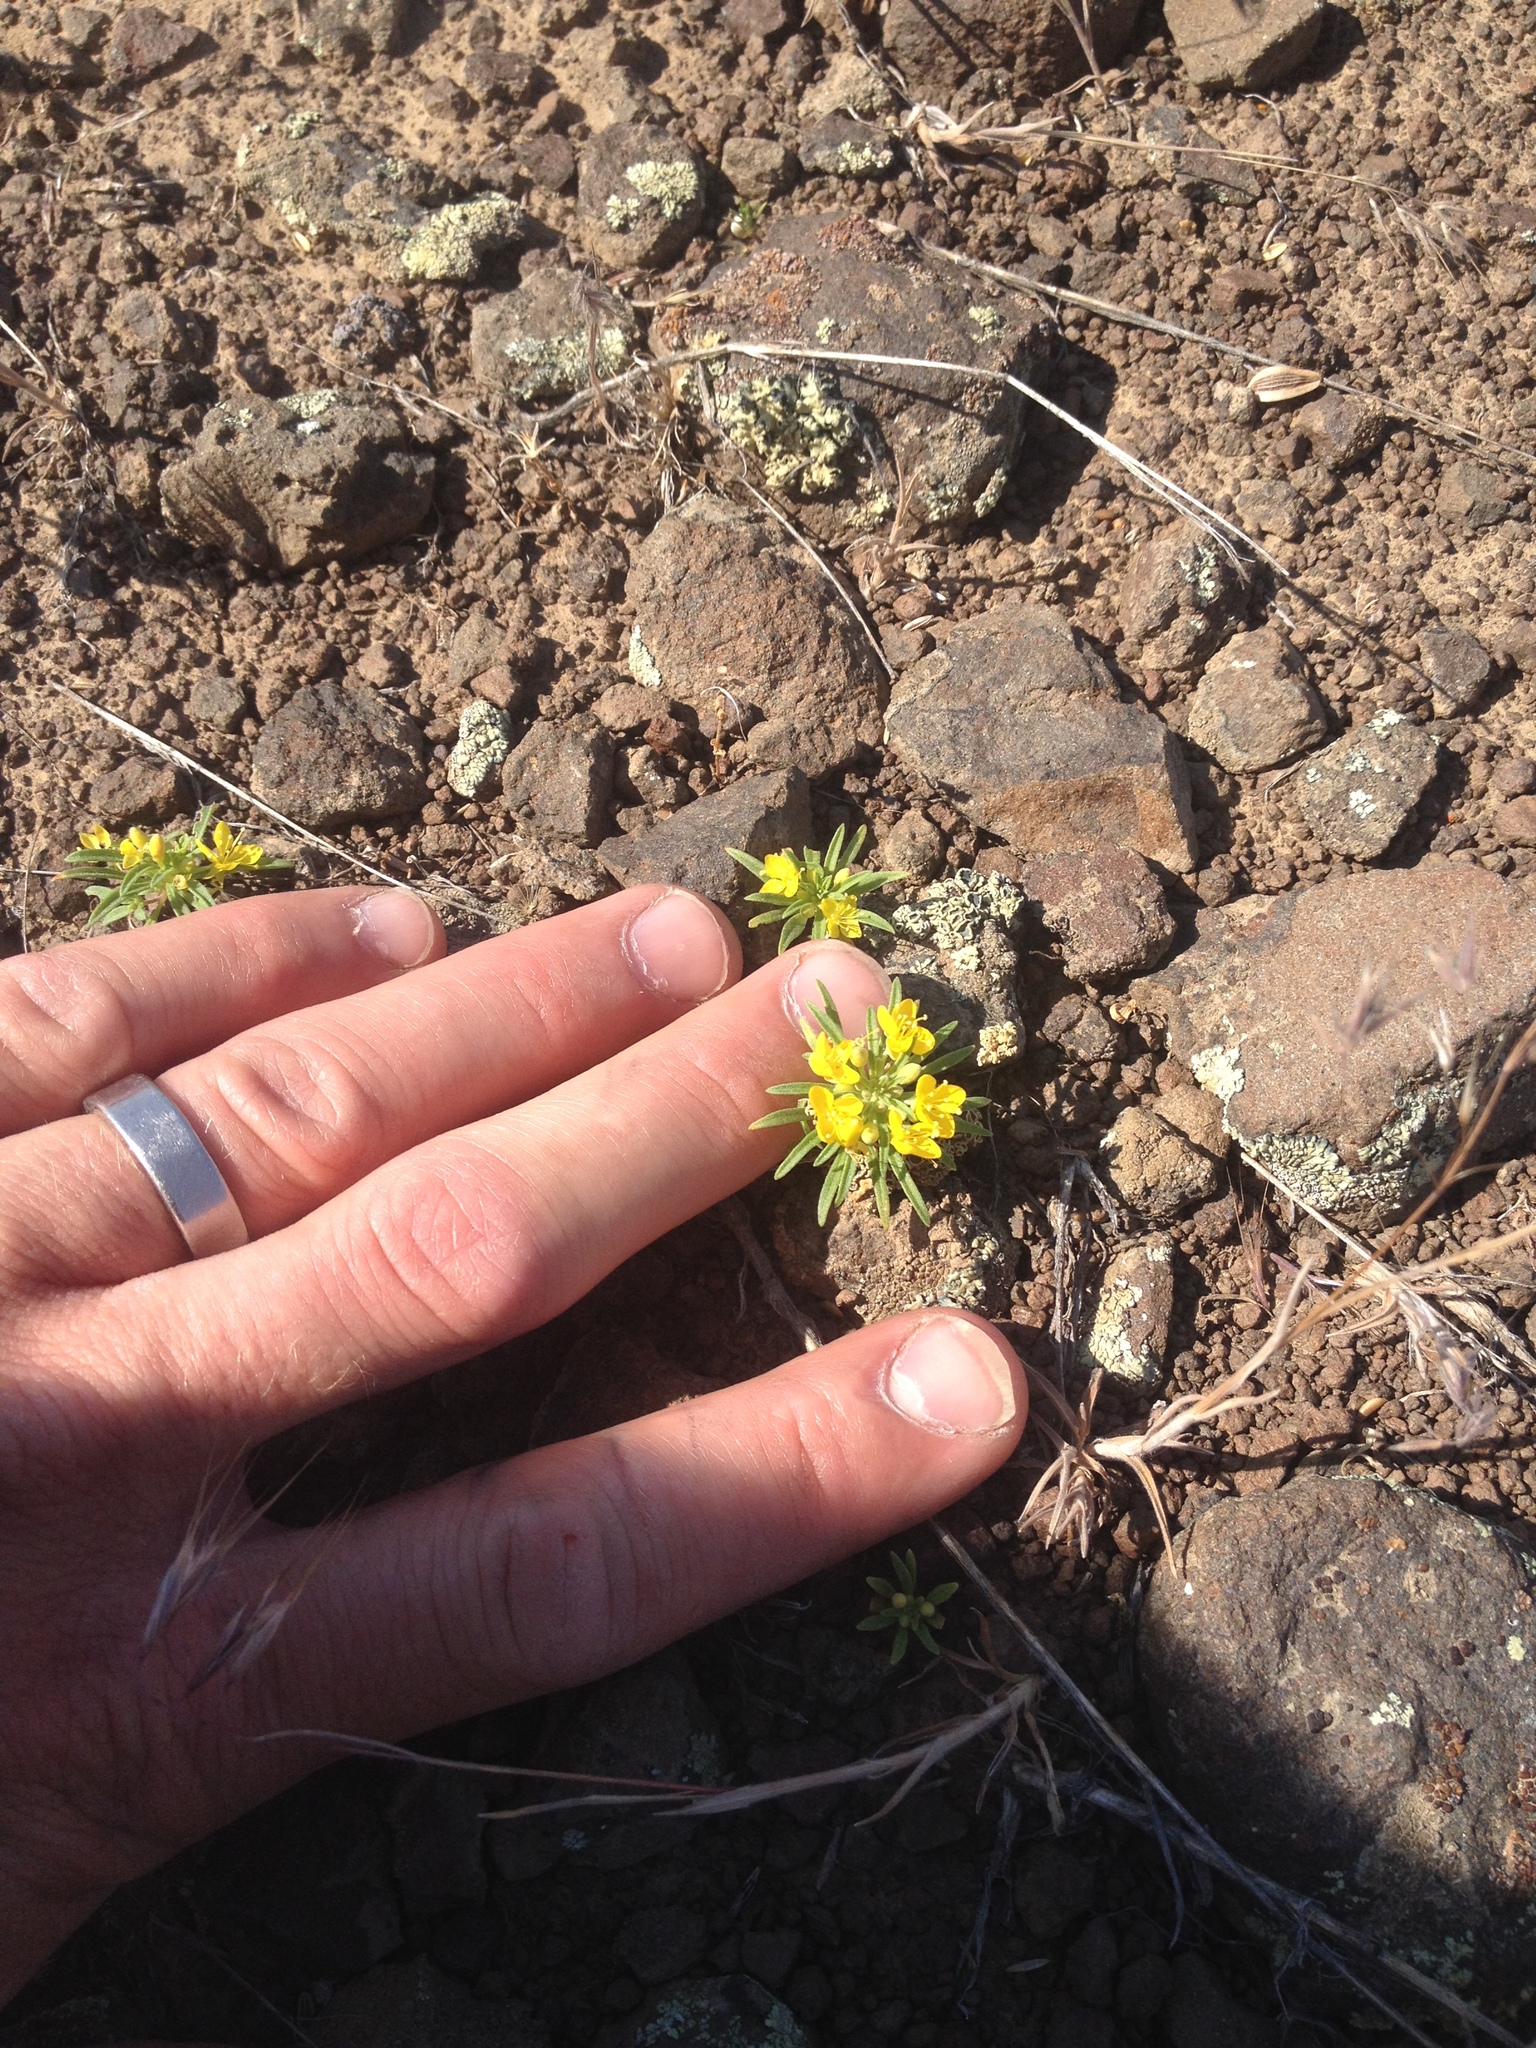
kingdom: Plantae
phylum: Tracheophyta
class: Magnoliopsida
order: Myrtales
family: Onagraceae
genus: Neoholmgrenia
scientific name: Neoholmgrenia hilgardii
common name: Hilgard's suncup
